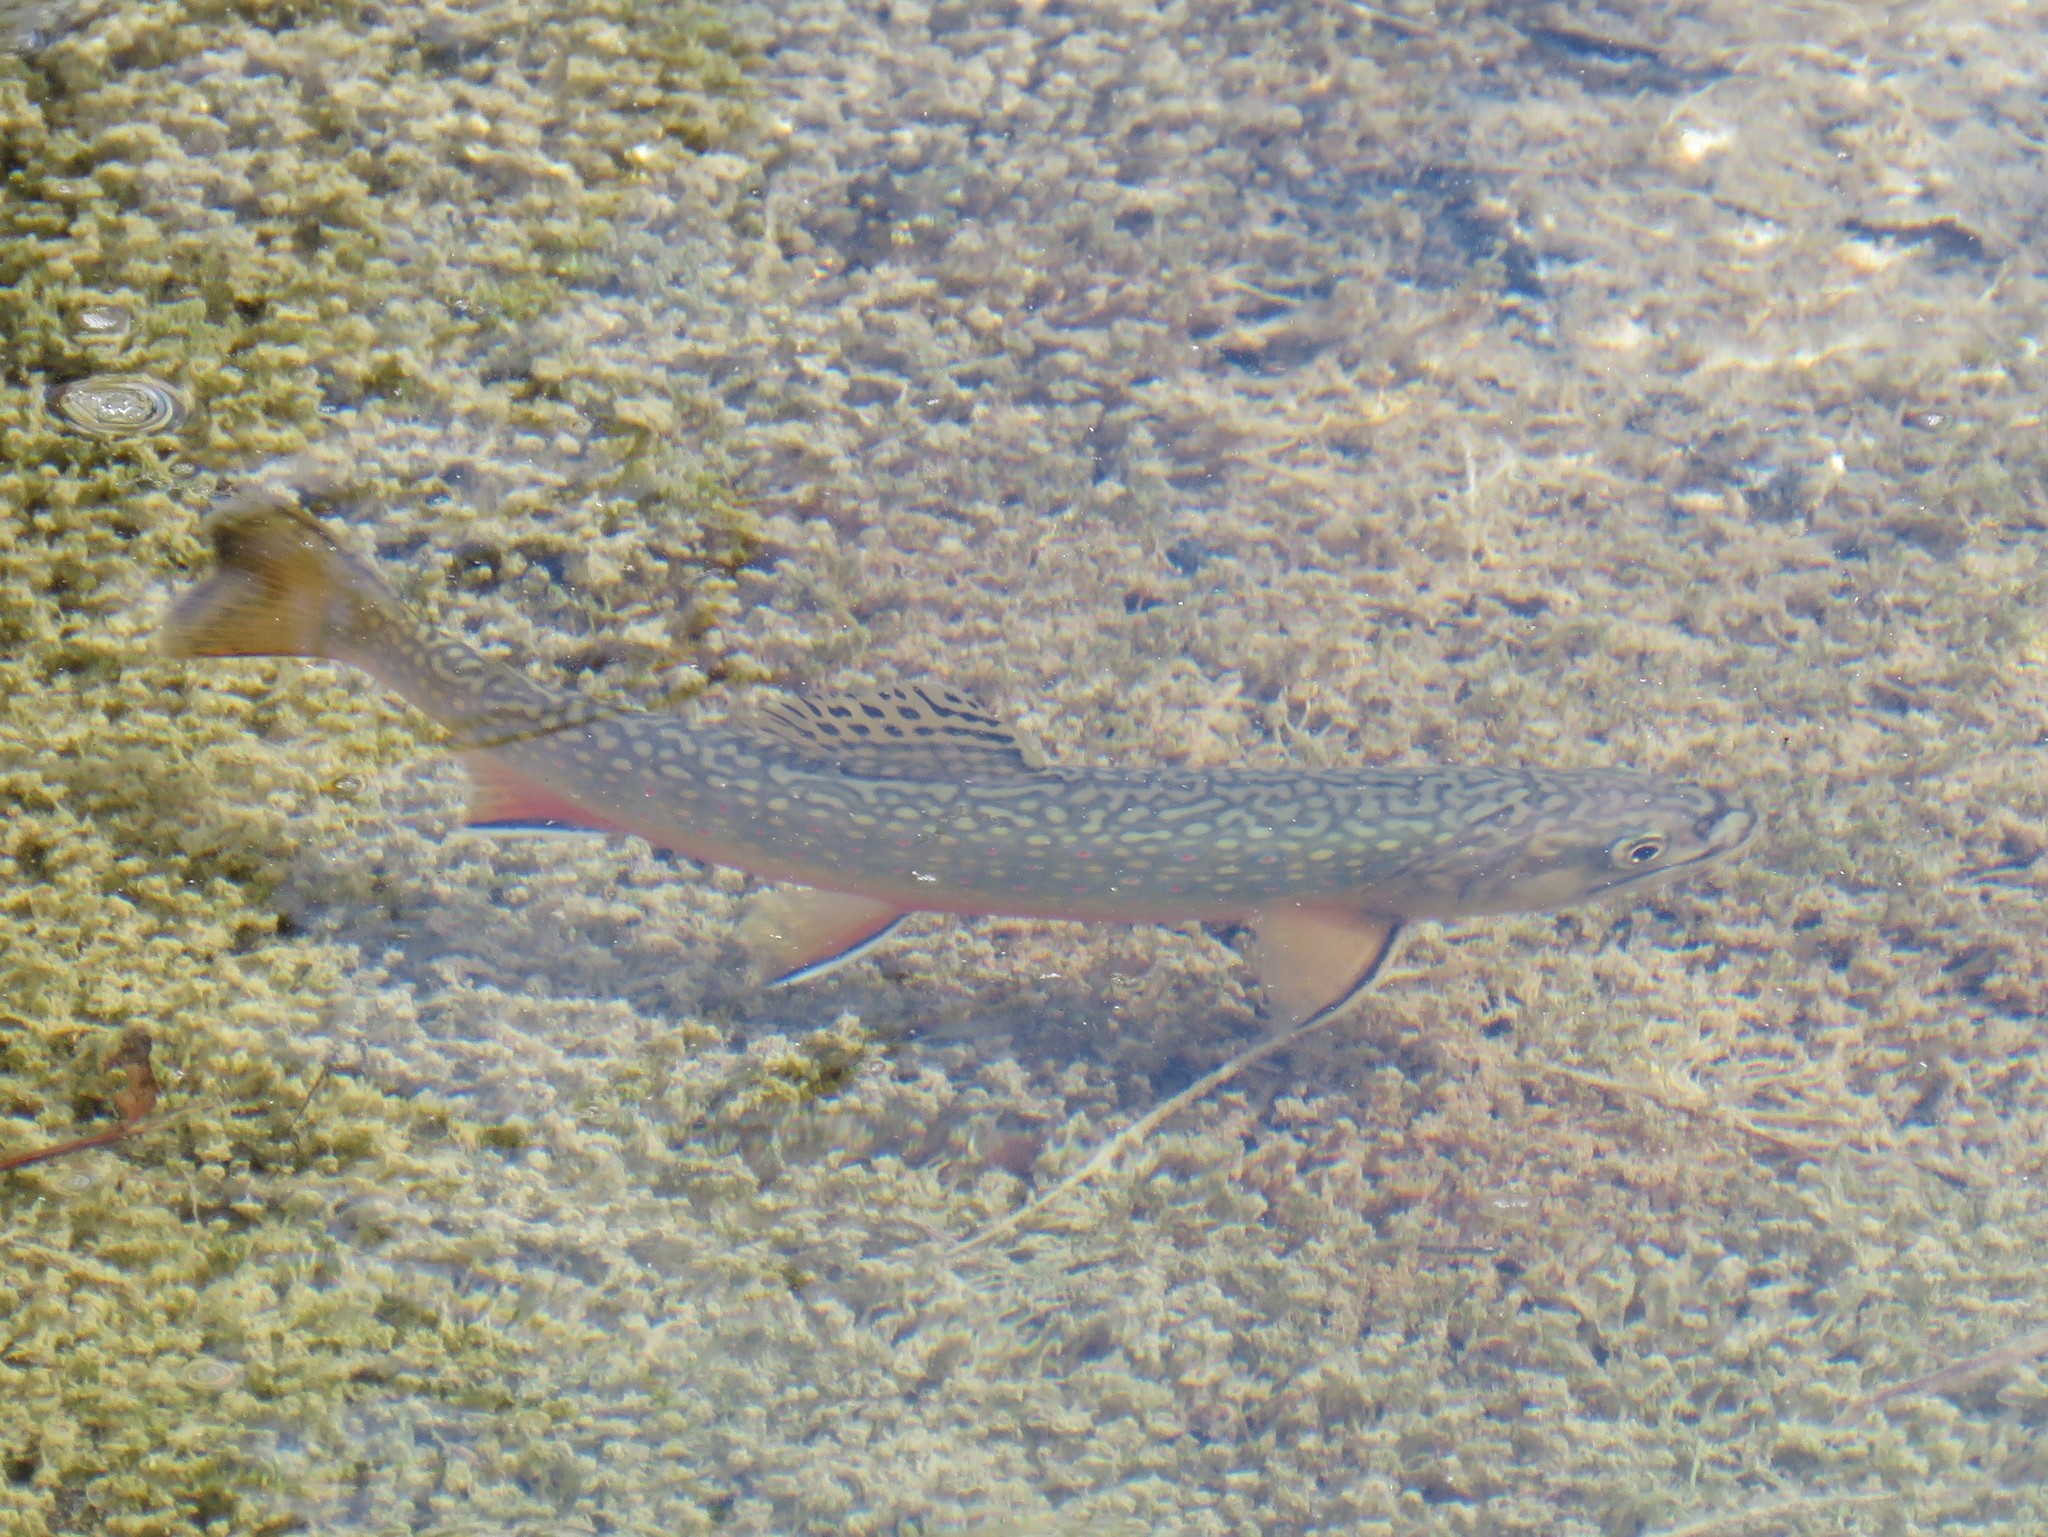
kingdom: Animalia
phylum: Chordata
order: Salmoniformes
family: Salmonidae
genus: Salvelinus
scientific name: Salvelinus fontinalis
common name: Brook trout
